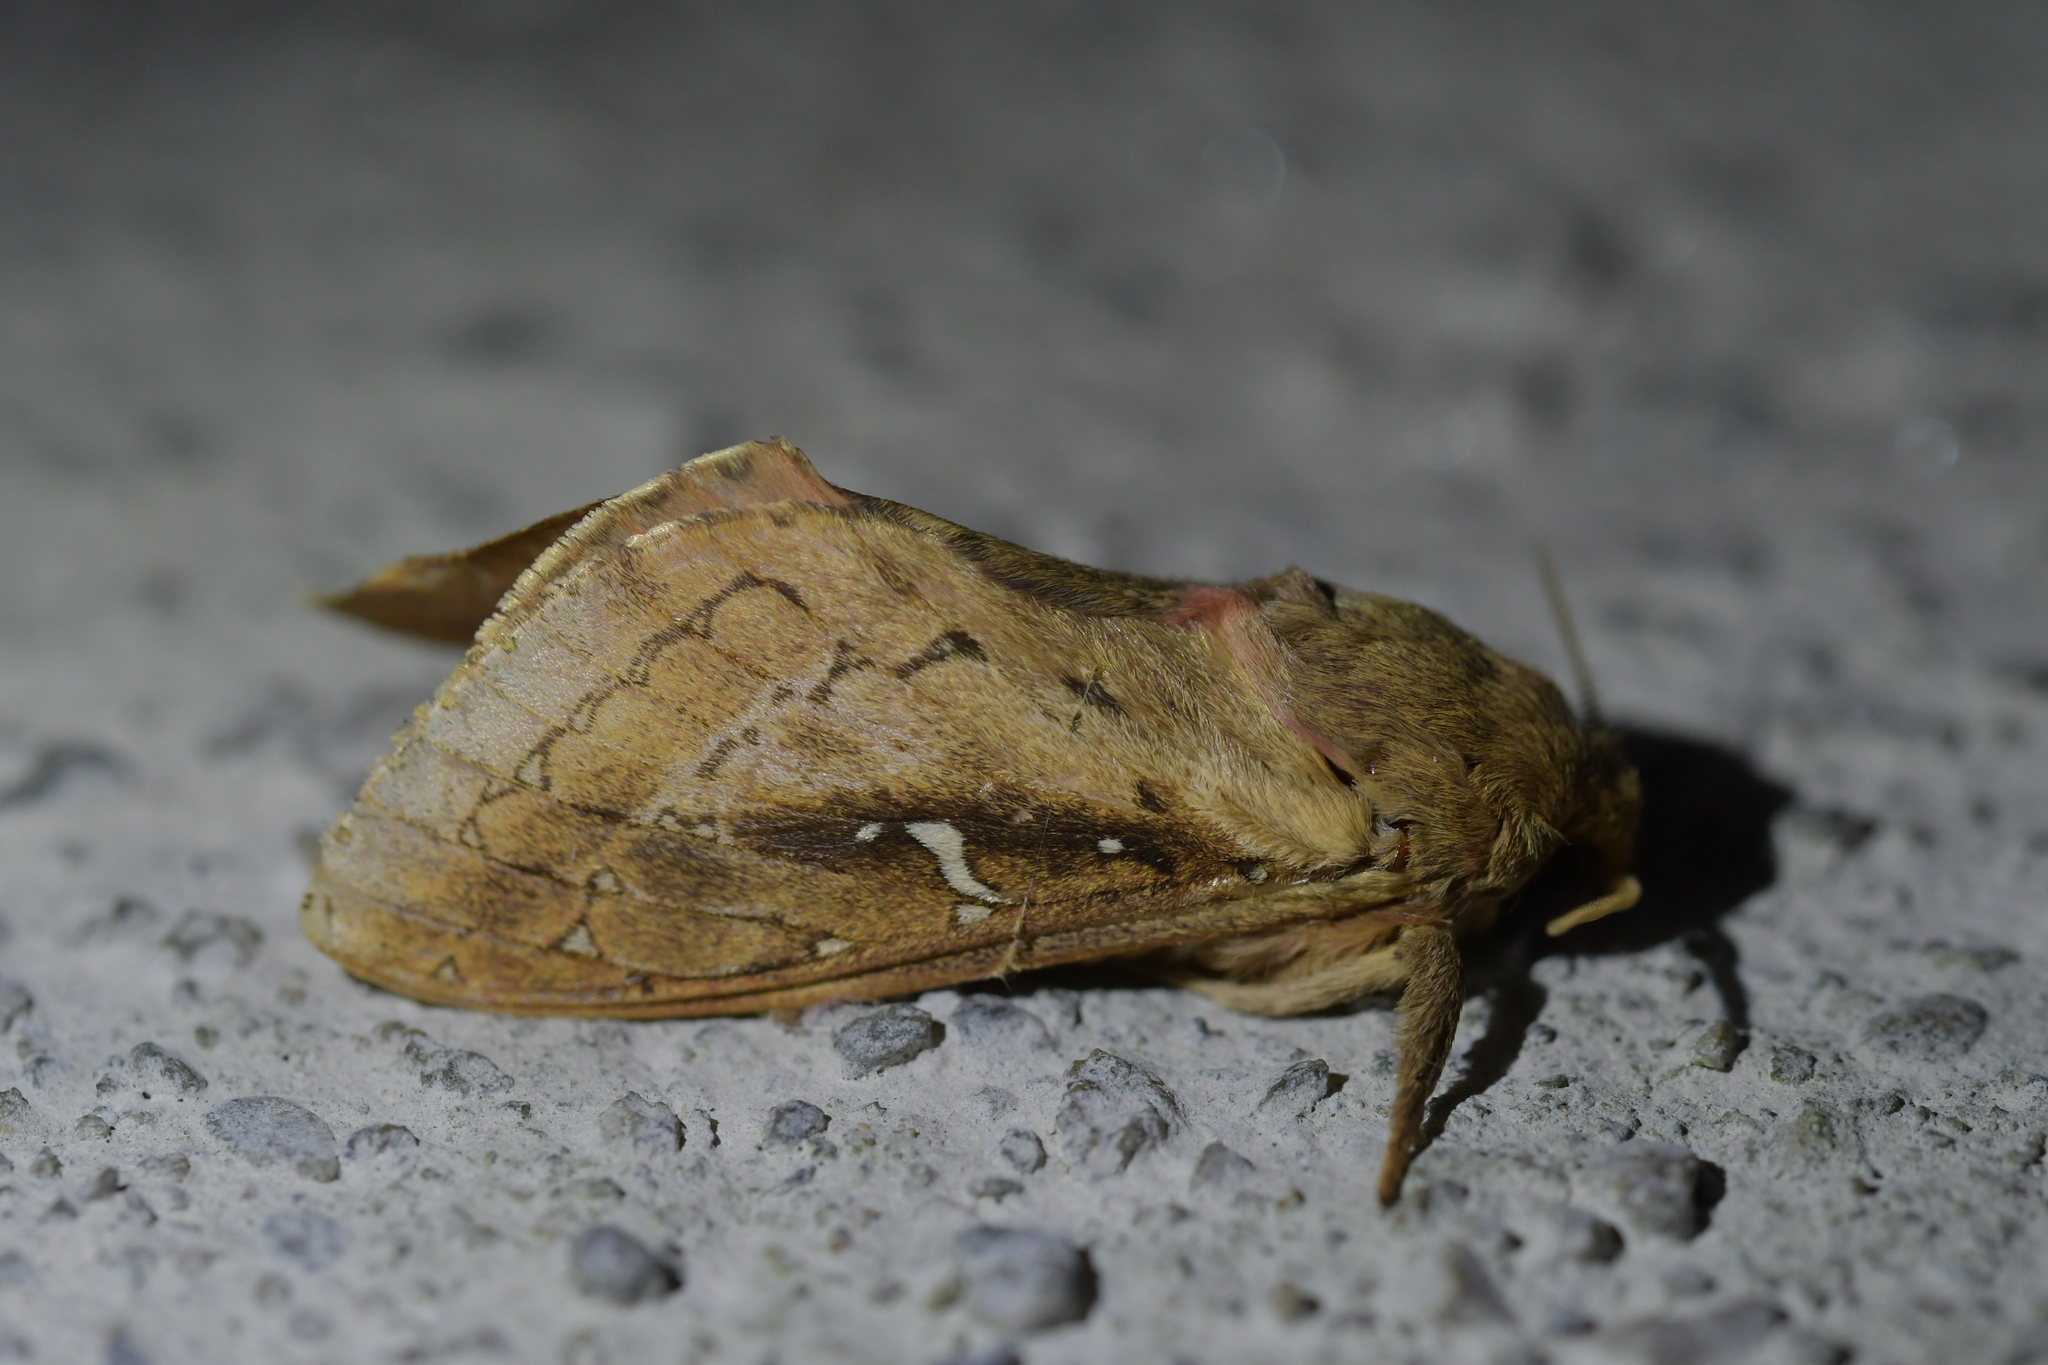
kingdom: Animalia
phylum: Arthropoda
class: Insecta
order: Lepidoptera
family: Hepialidae
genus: Wiseana
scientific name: Wiseana cervinata
